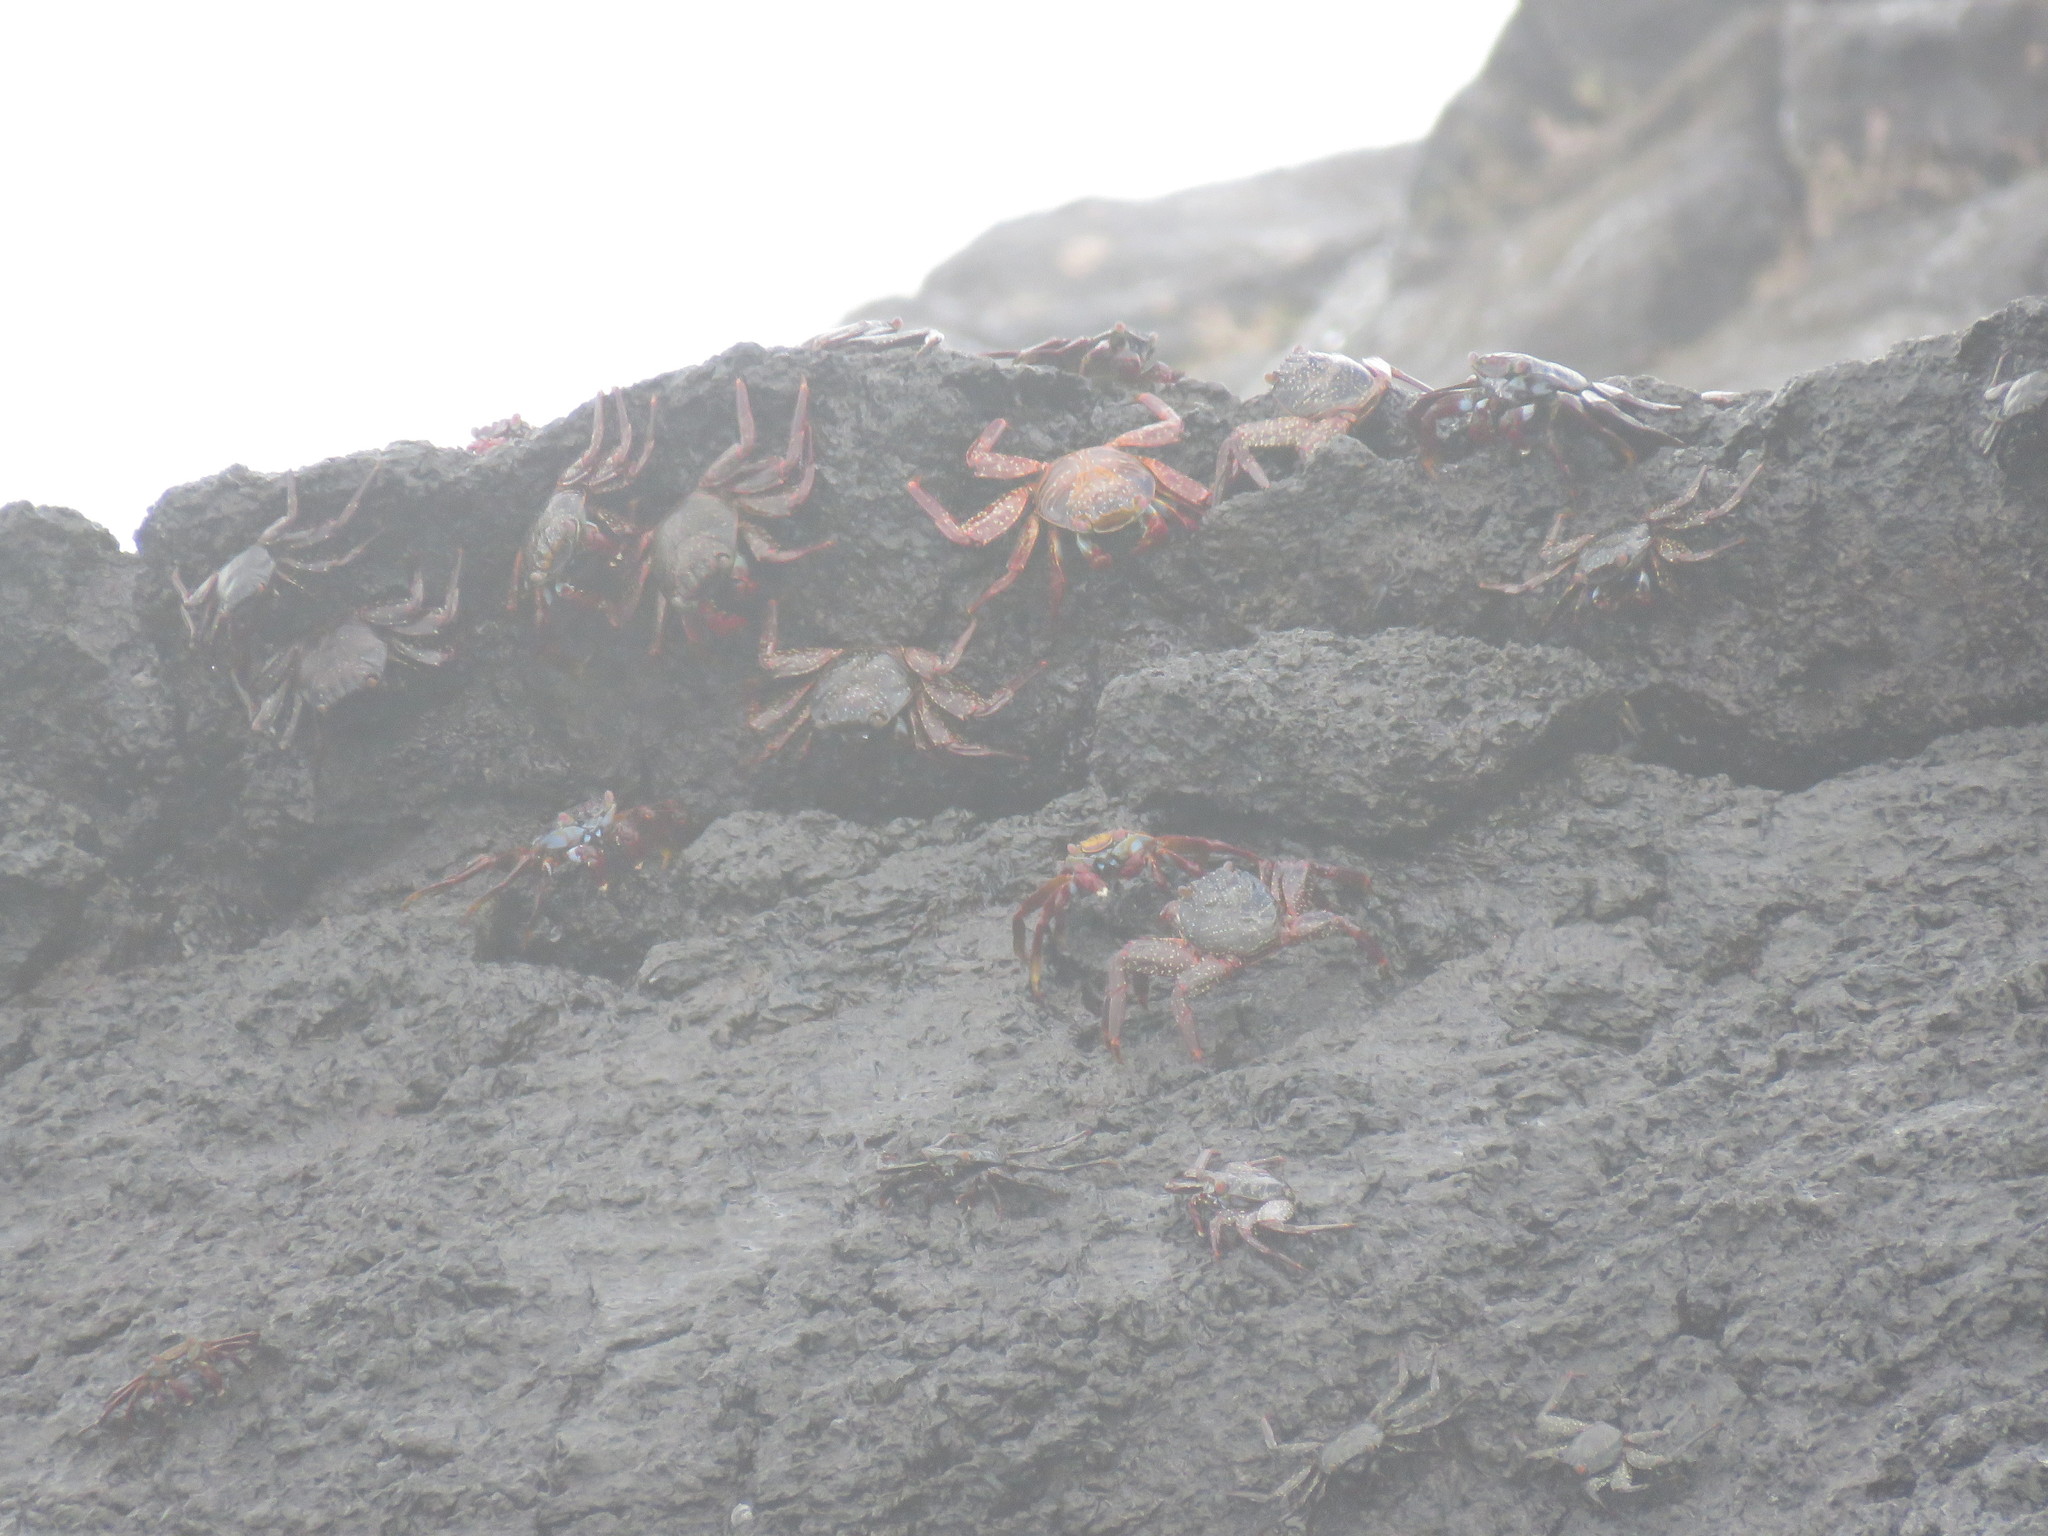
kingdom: Animalia
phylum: Arthropoda
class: Malacostraca
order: Decapoda
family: Grapsidae
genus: Grapsus
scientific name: Grapsus grapsus
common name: Sally lightfoot
